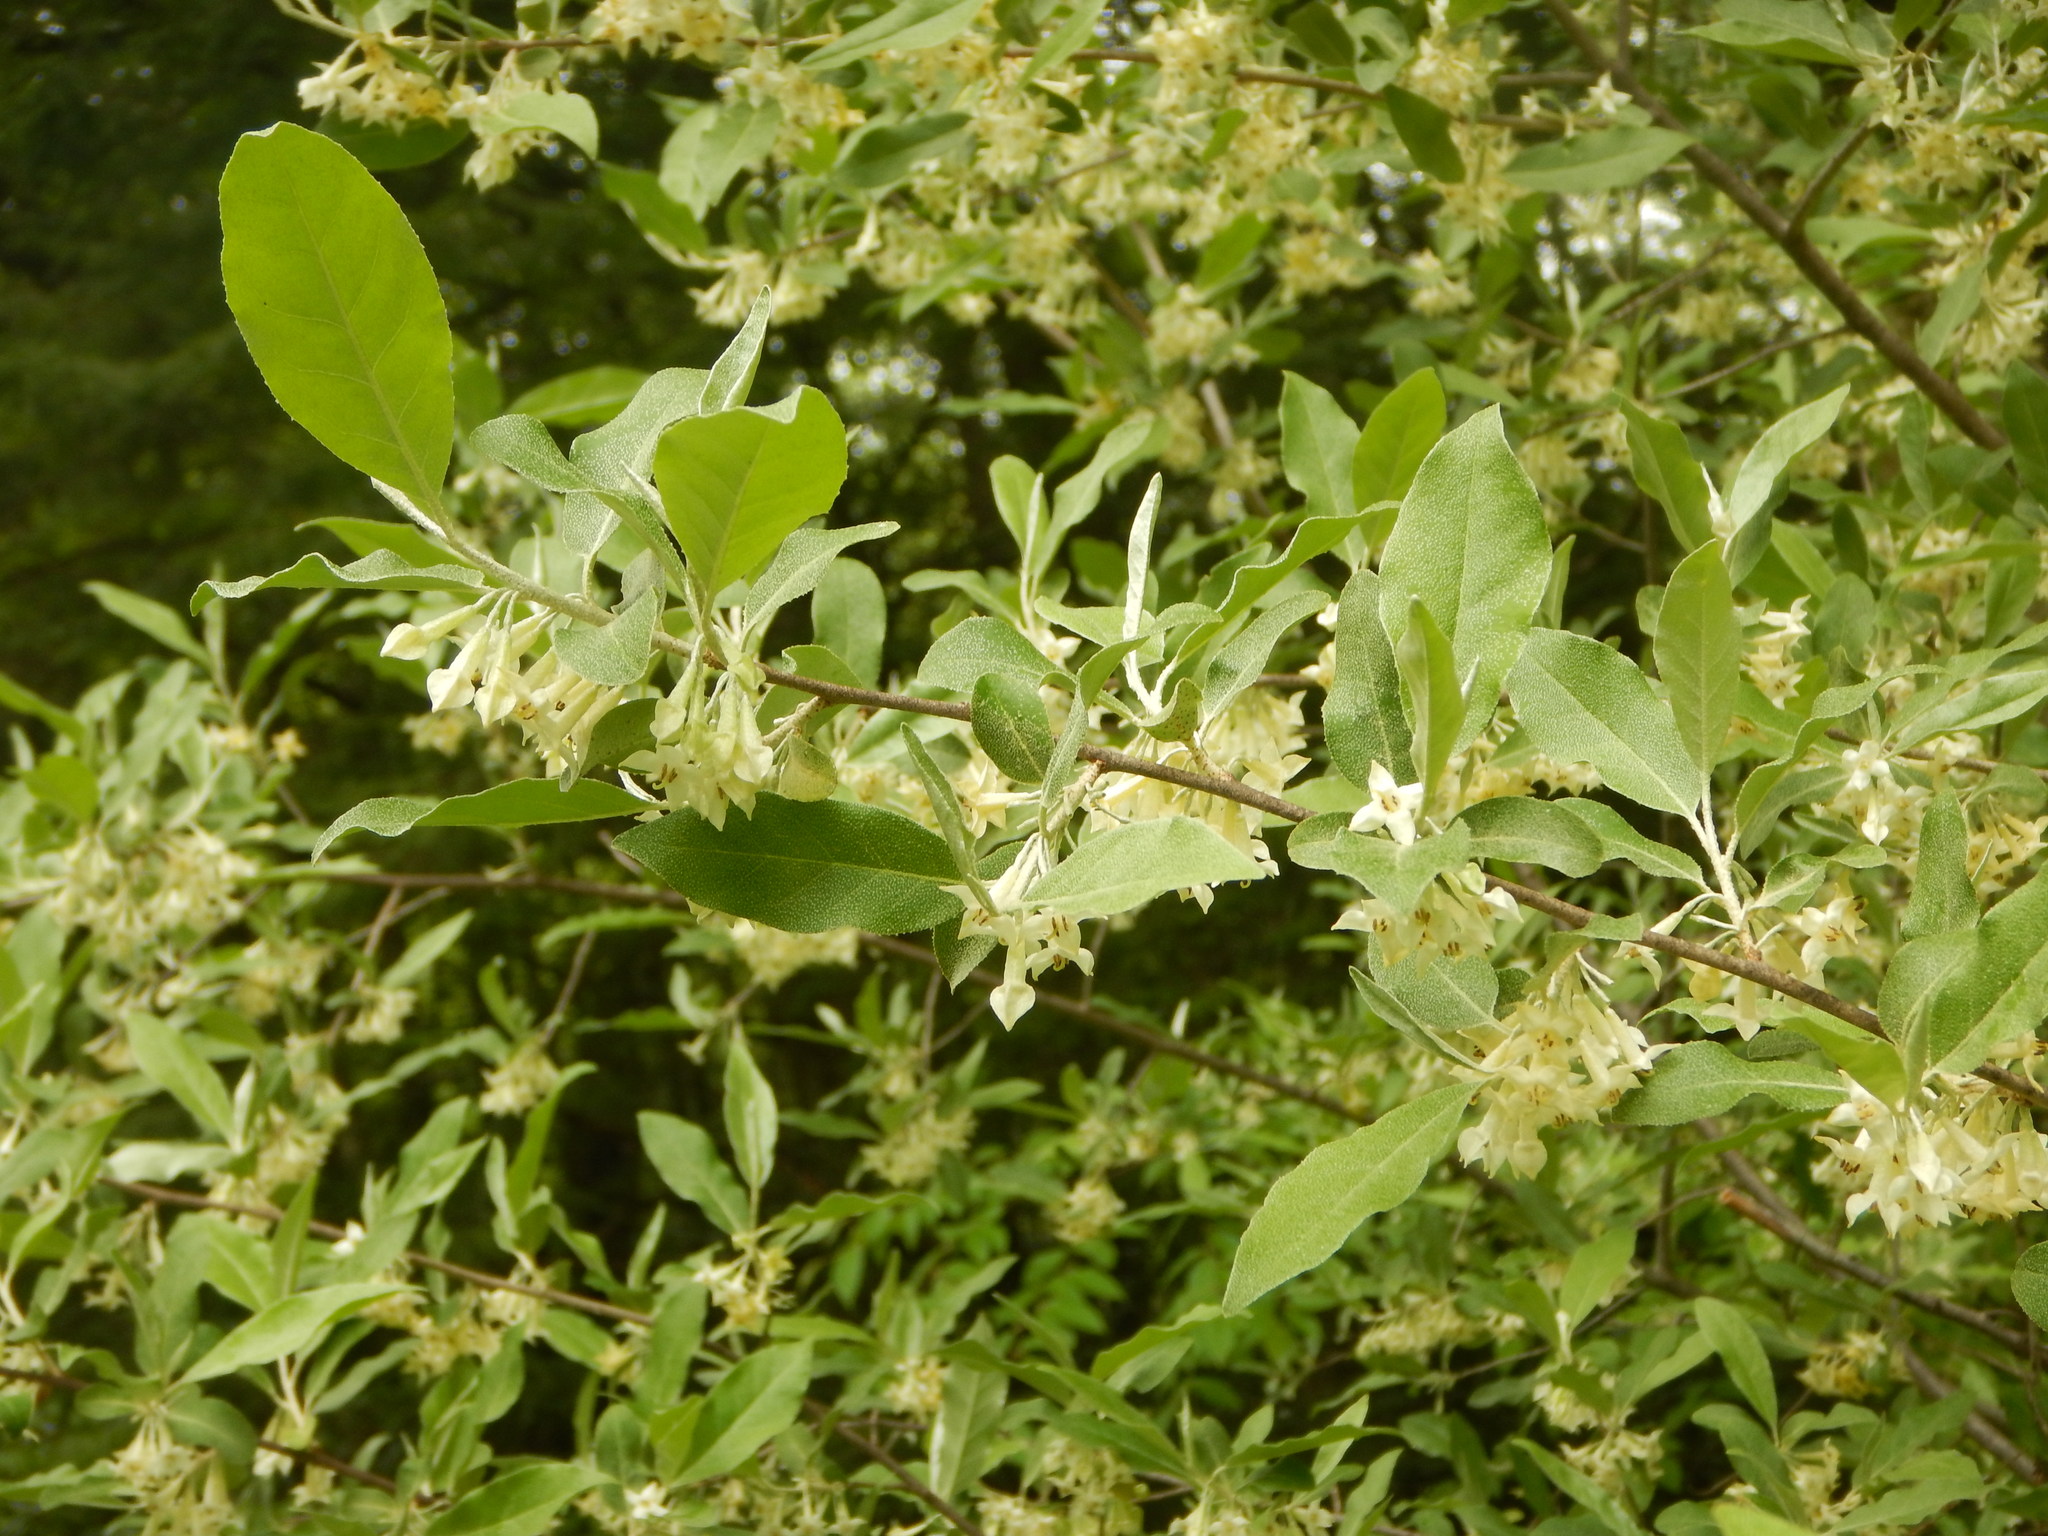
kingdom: Plantae
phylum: Tracheophyta
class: Magnoliopsida
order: Rosales
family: Elaeagnaceae
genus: Elaeagnus
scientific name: Elaeagnus umbellata
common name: Autumn olive
